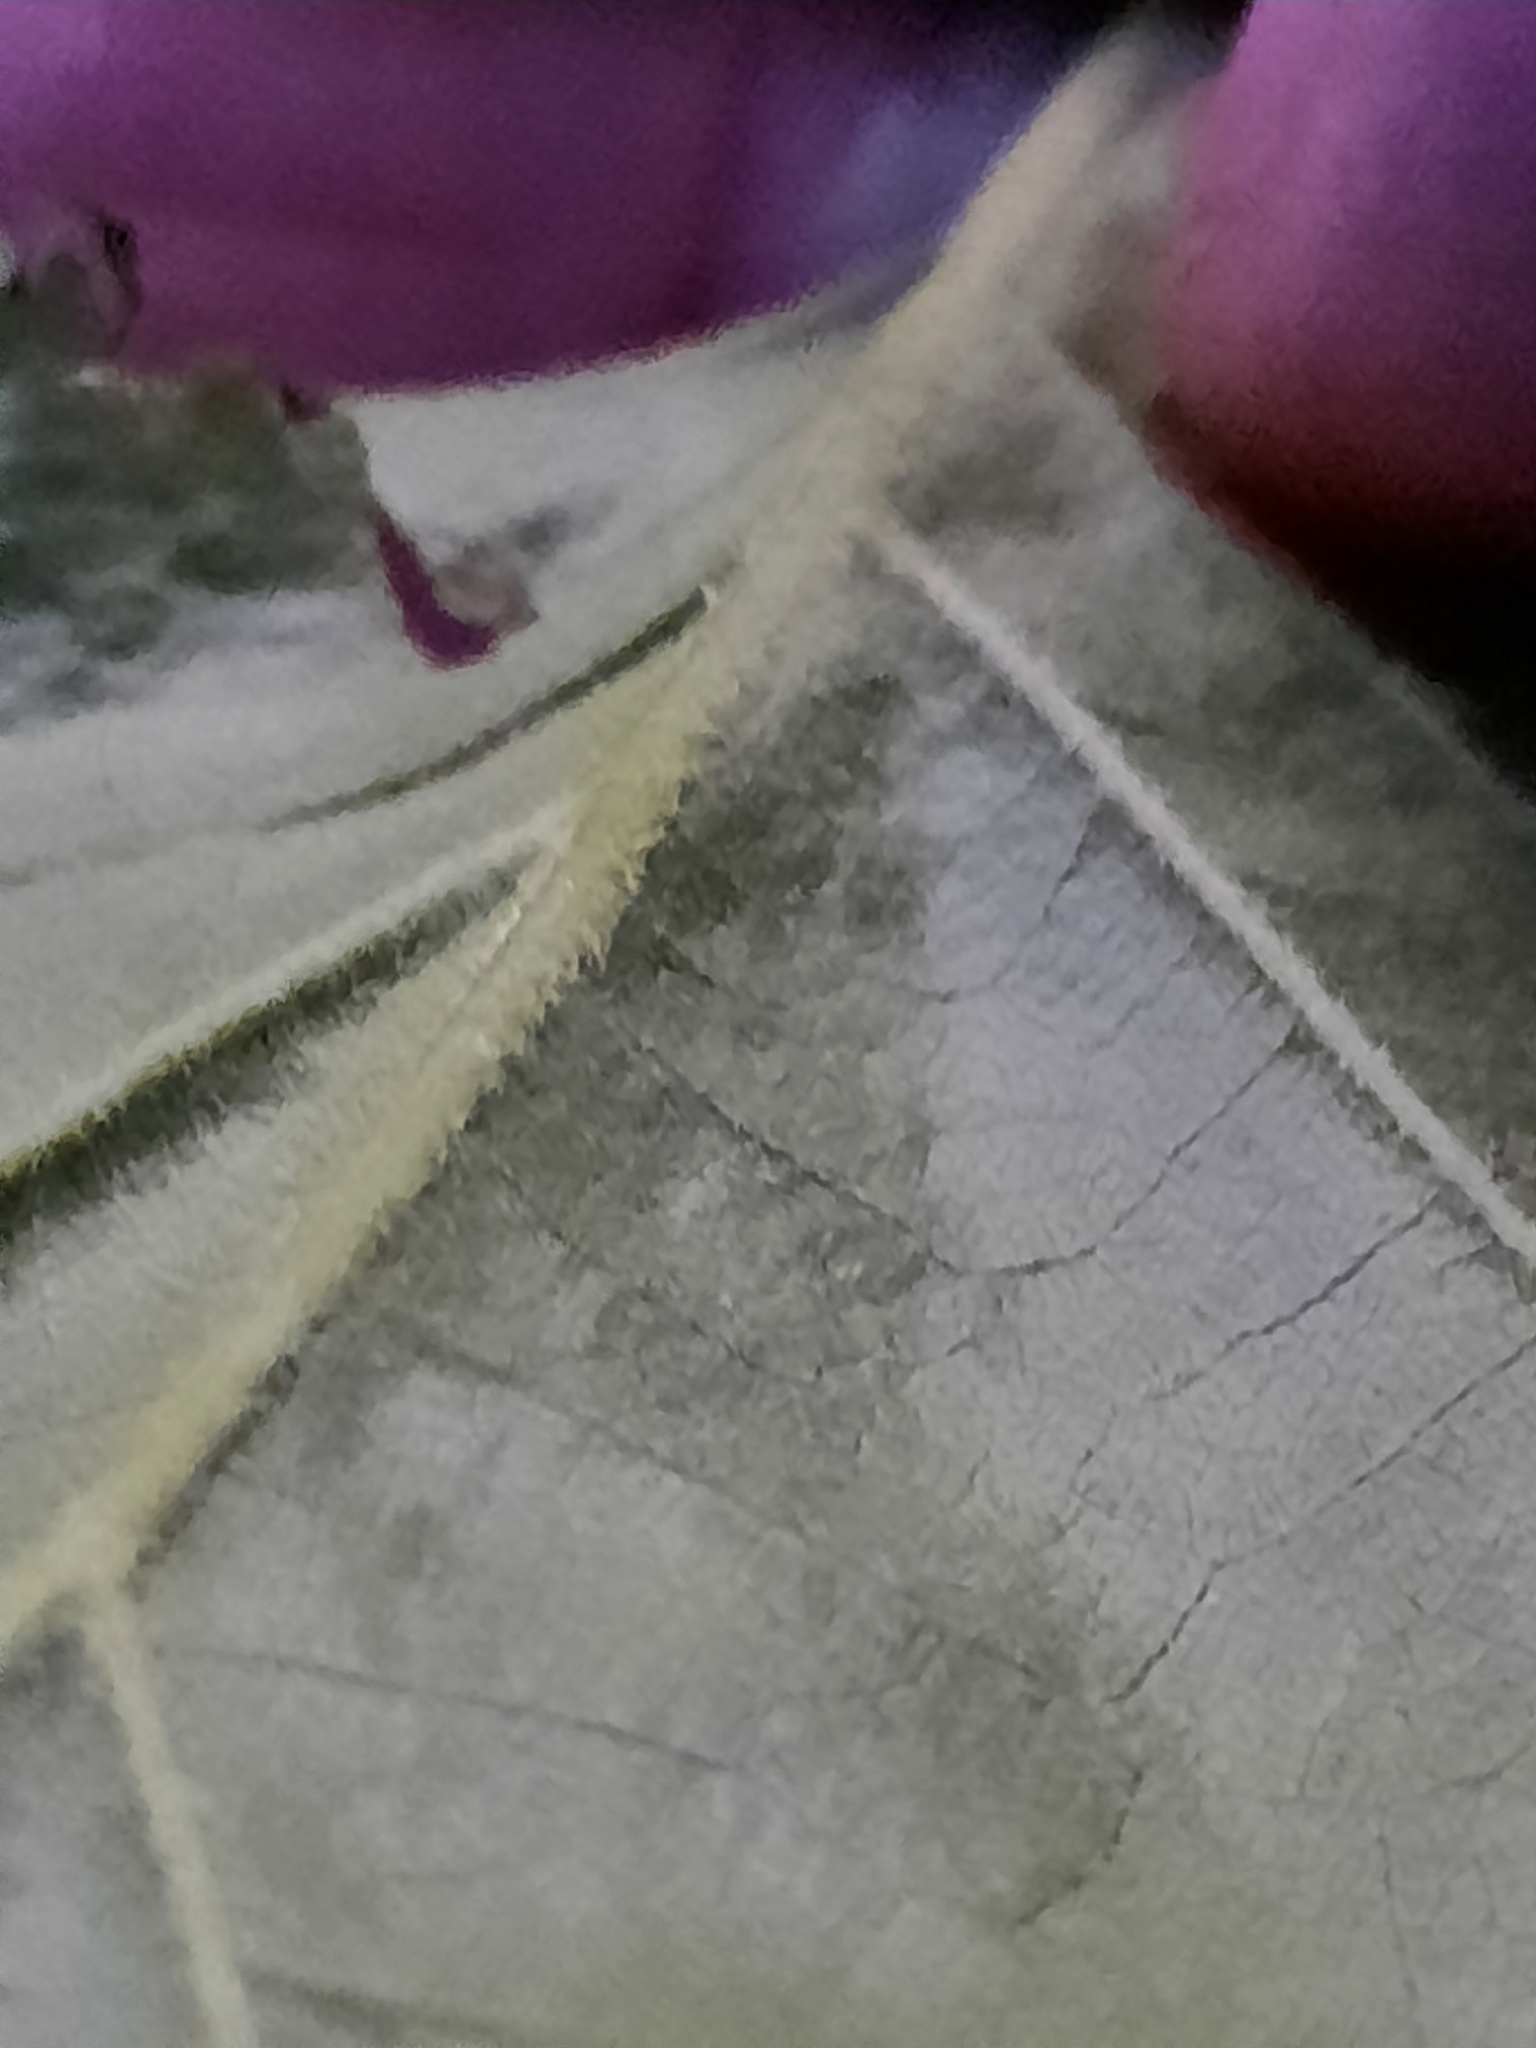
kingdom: Plantae
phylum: Tracheophyta
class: Magnoliopsida
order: Fagales
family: Fagaceae
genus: Quercus
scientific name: Quercus velutina
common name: Black oak
